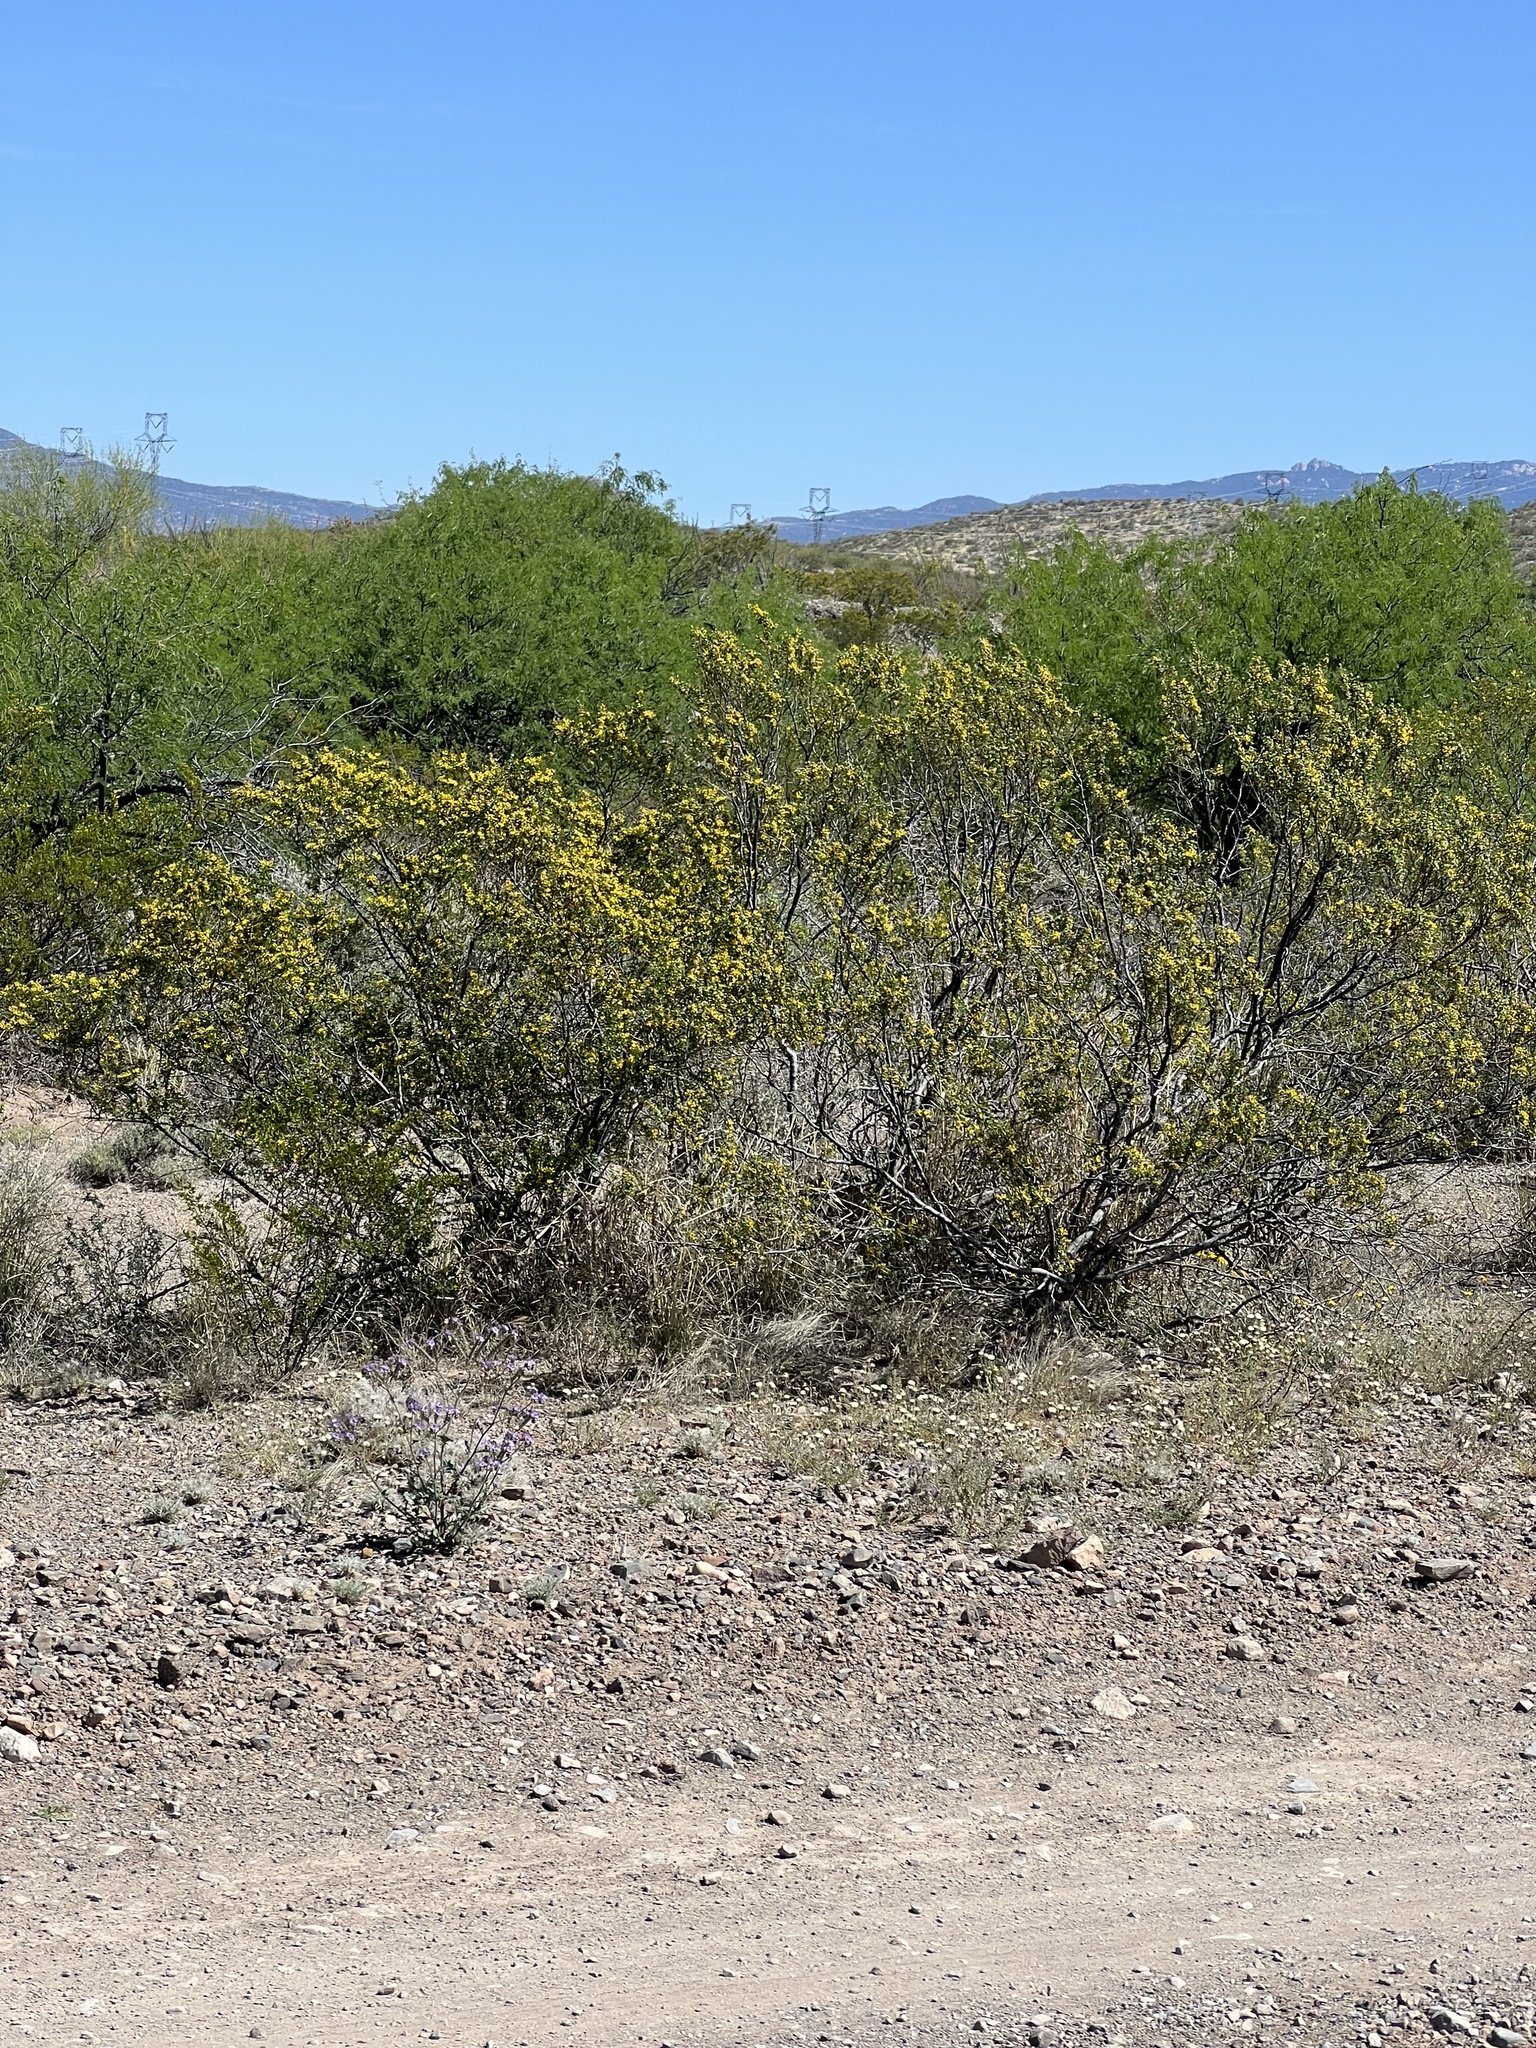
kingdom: Plantae
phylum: Tracheophyta
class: Magnoliopsida
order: Zygophyllales
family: Zygophyllaceae
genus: Larrea
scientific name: Larrea tridentata
